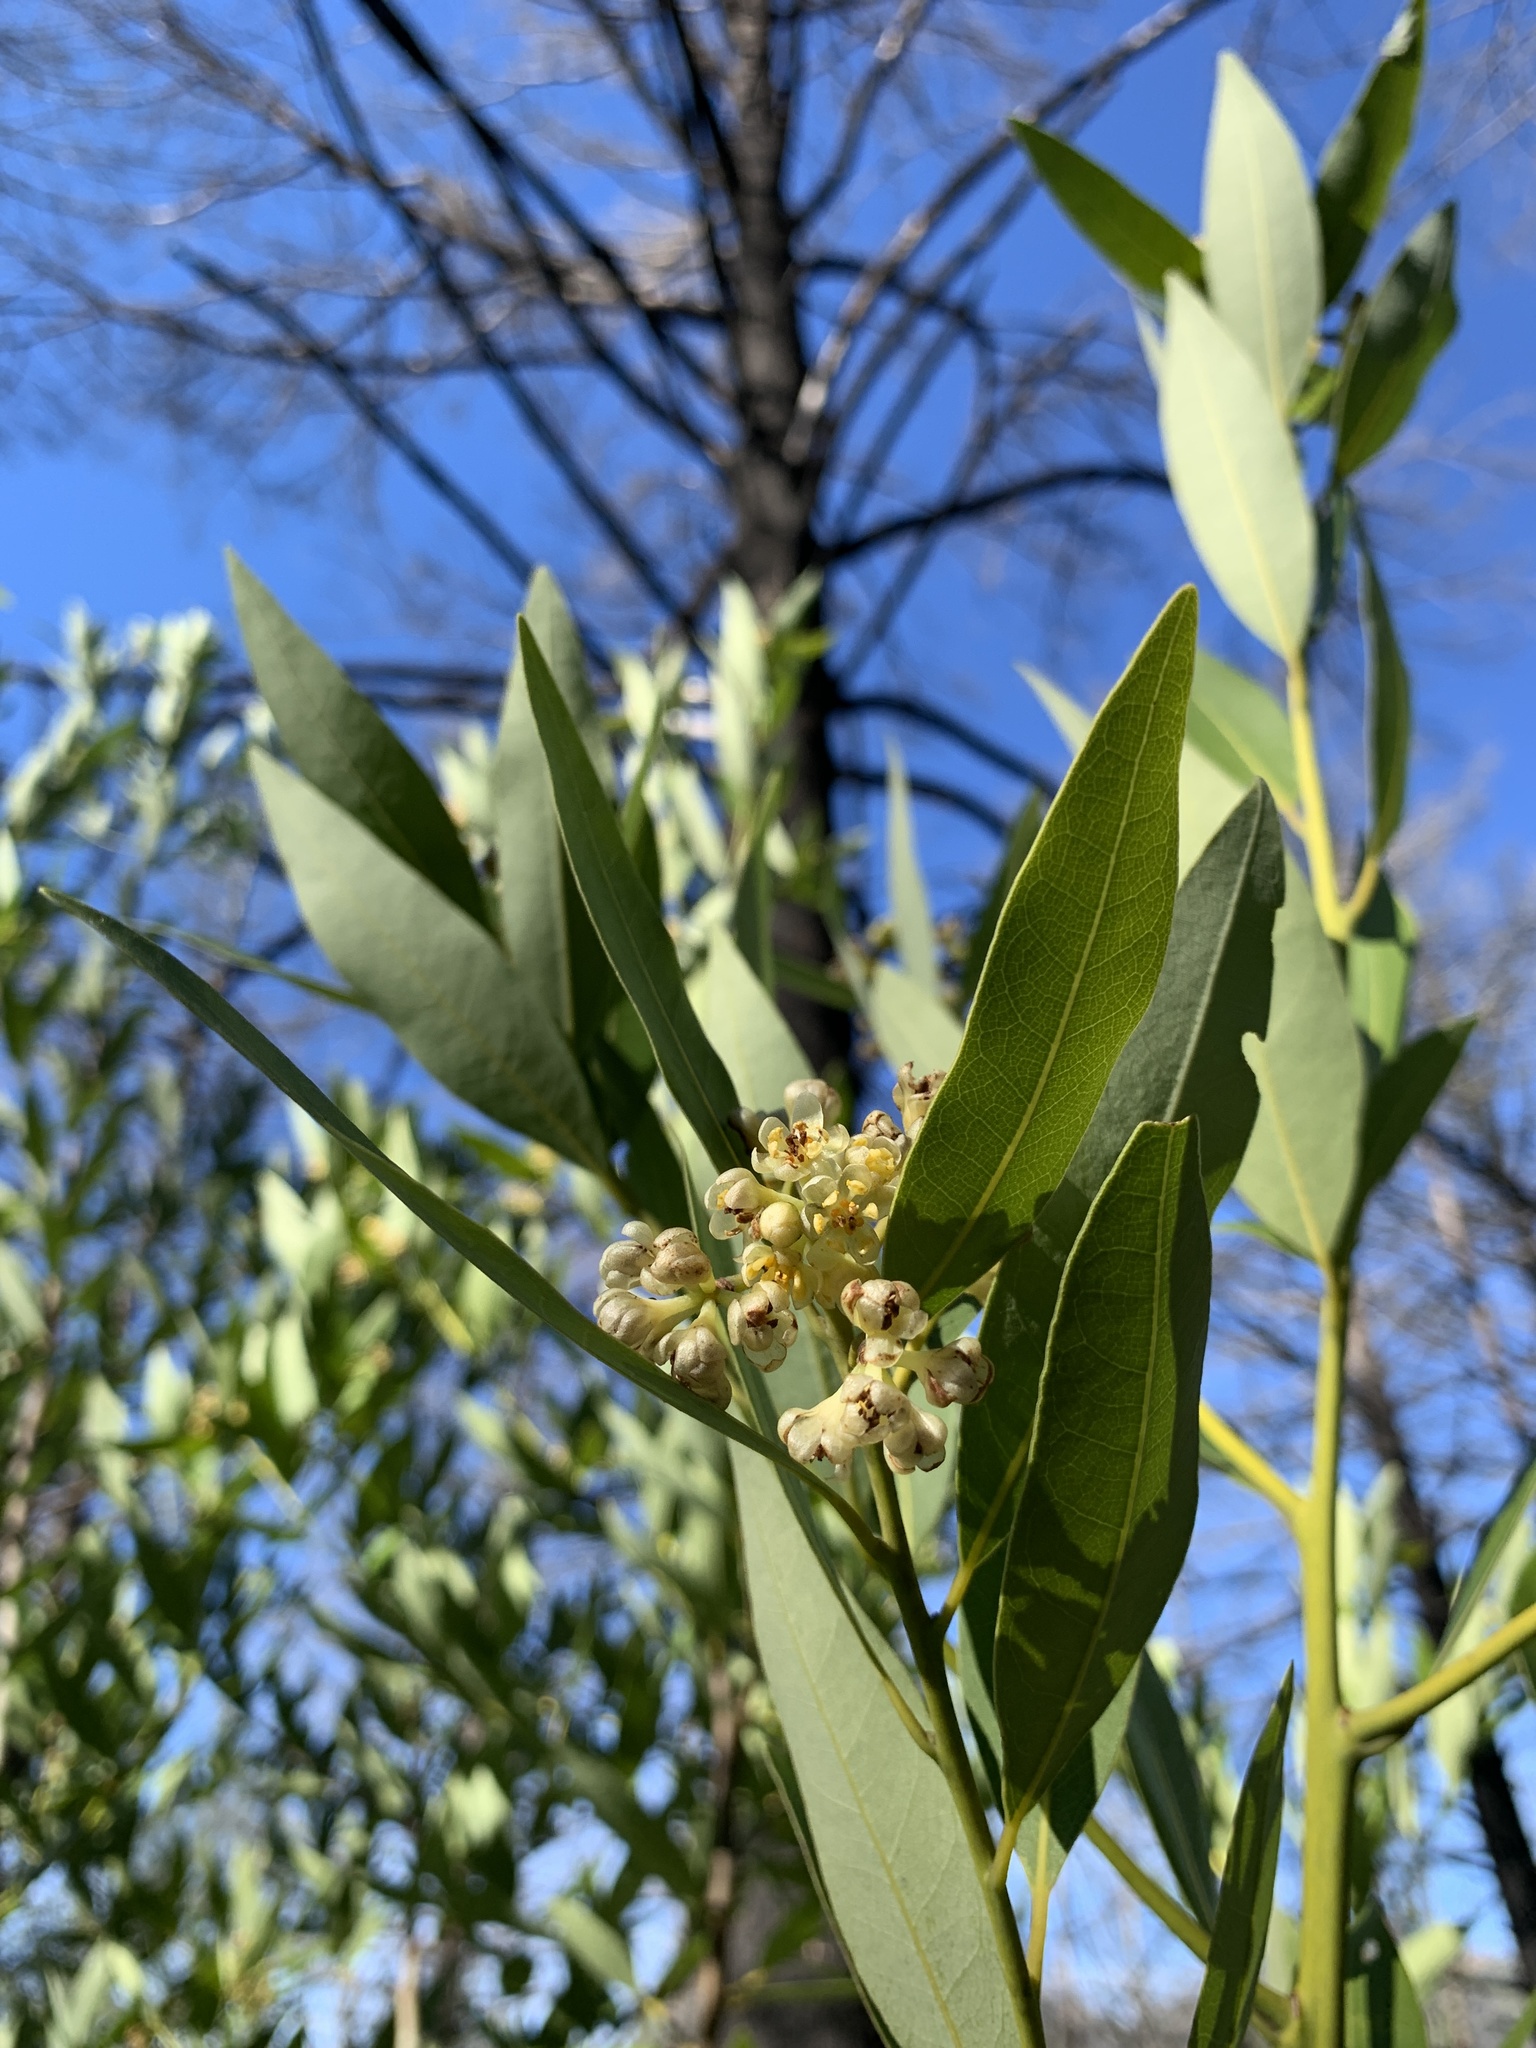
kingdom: Plantae
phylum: Tracheophyta
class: Magnoliopsida
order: Laurales
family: Lauraceae
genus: Umbellularia
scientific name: Umbellularia californica
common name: California bay
